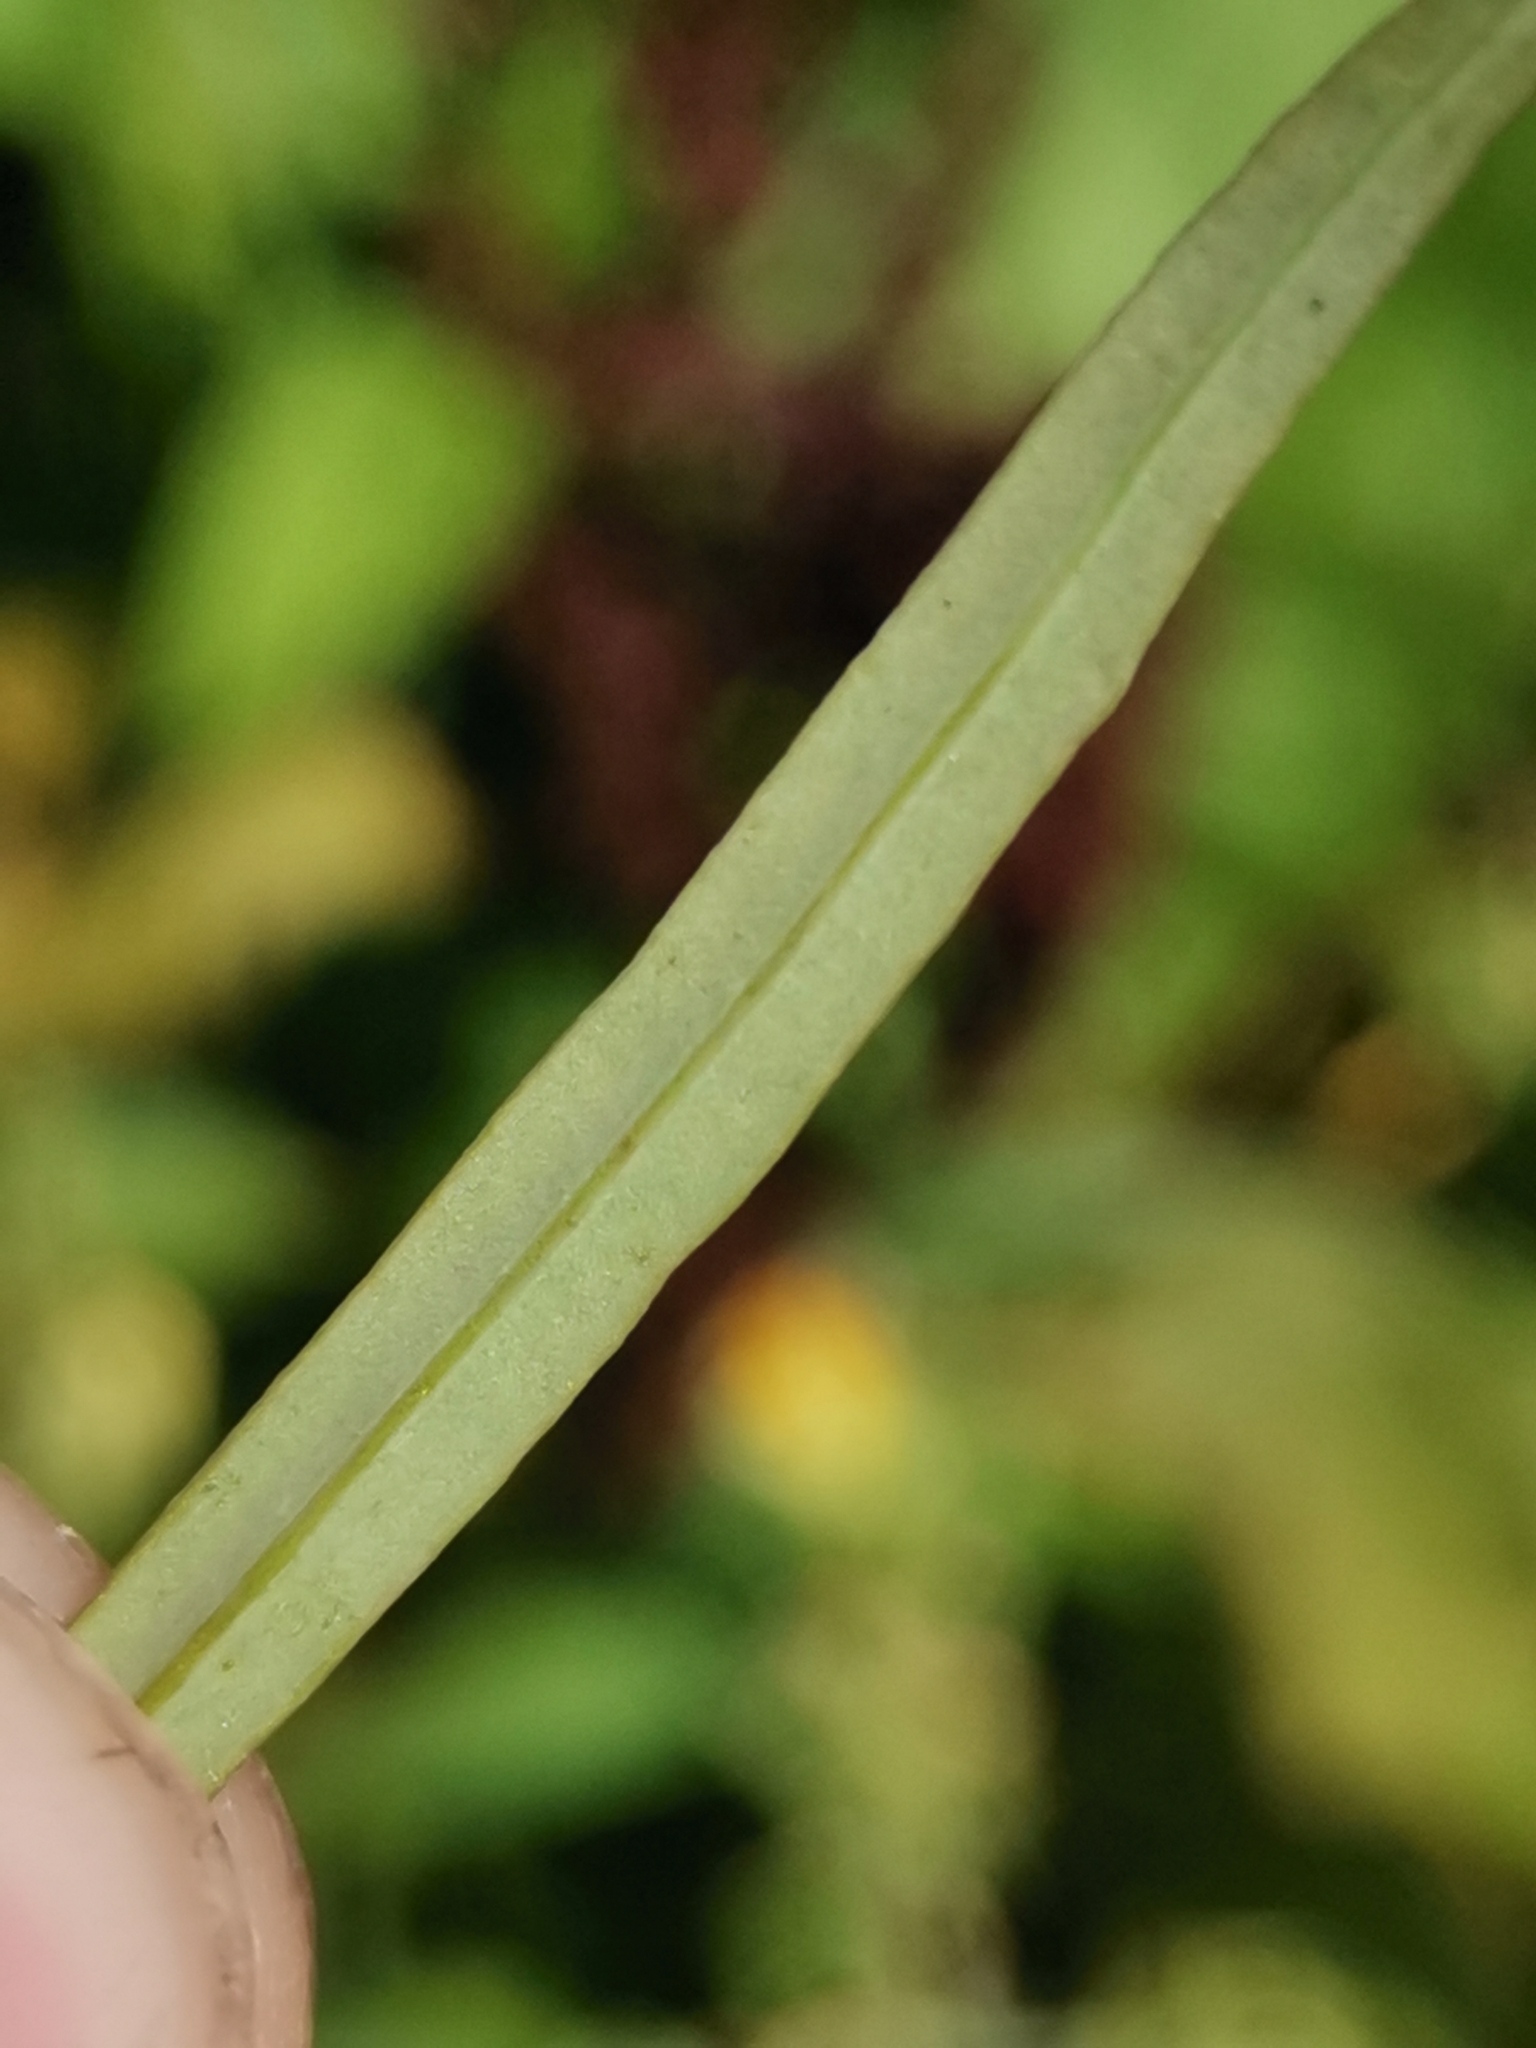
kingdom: Plantae
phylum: Tracheophyta
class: Magnoliopsida
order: Lamiales
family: Plantaginaceae
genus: Linaria
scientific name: Linaria vulgaris
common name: Butter and eggs
